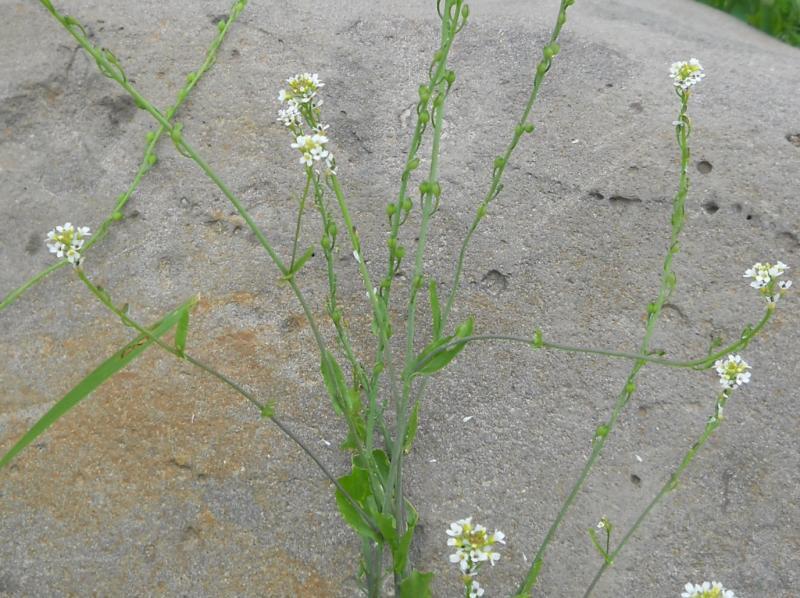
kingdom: Plantae
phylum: Tracheophyta
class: Magnoliopsida
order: Brassicales
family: Brassicaceae
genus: Calepina
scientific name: Calepina irregularis
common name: White ballmustard
